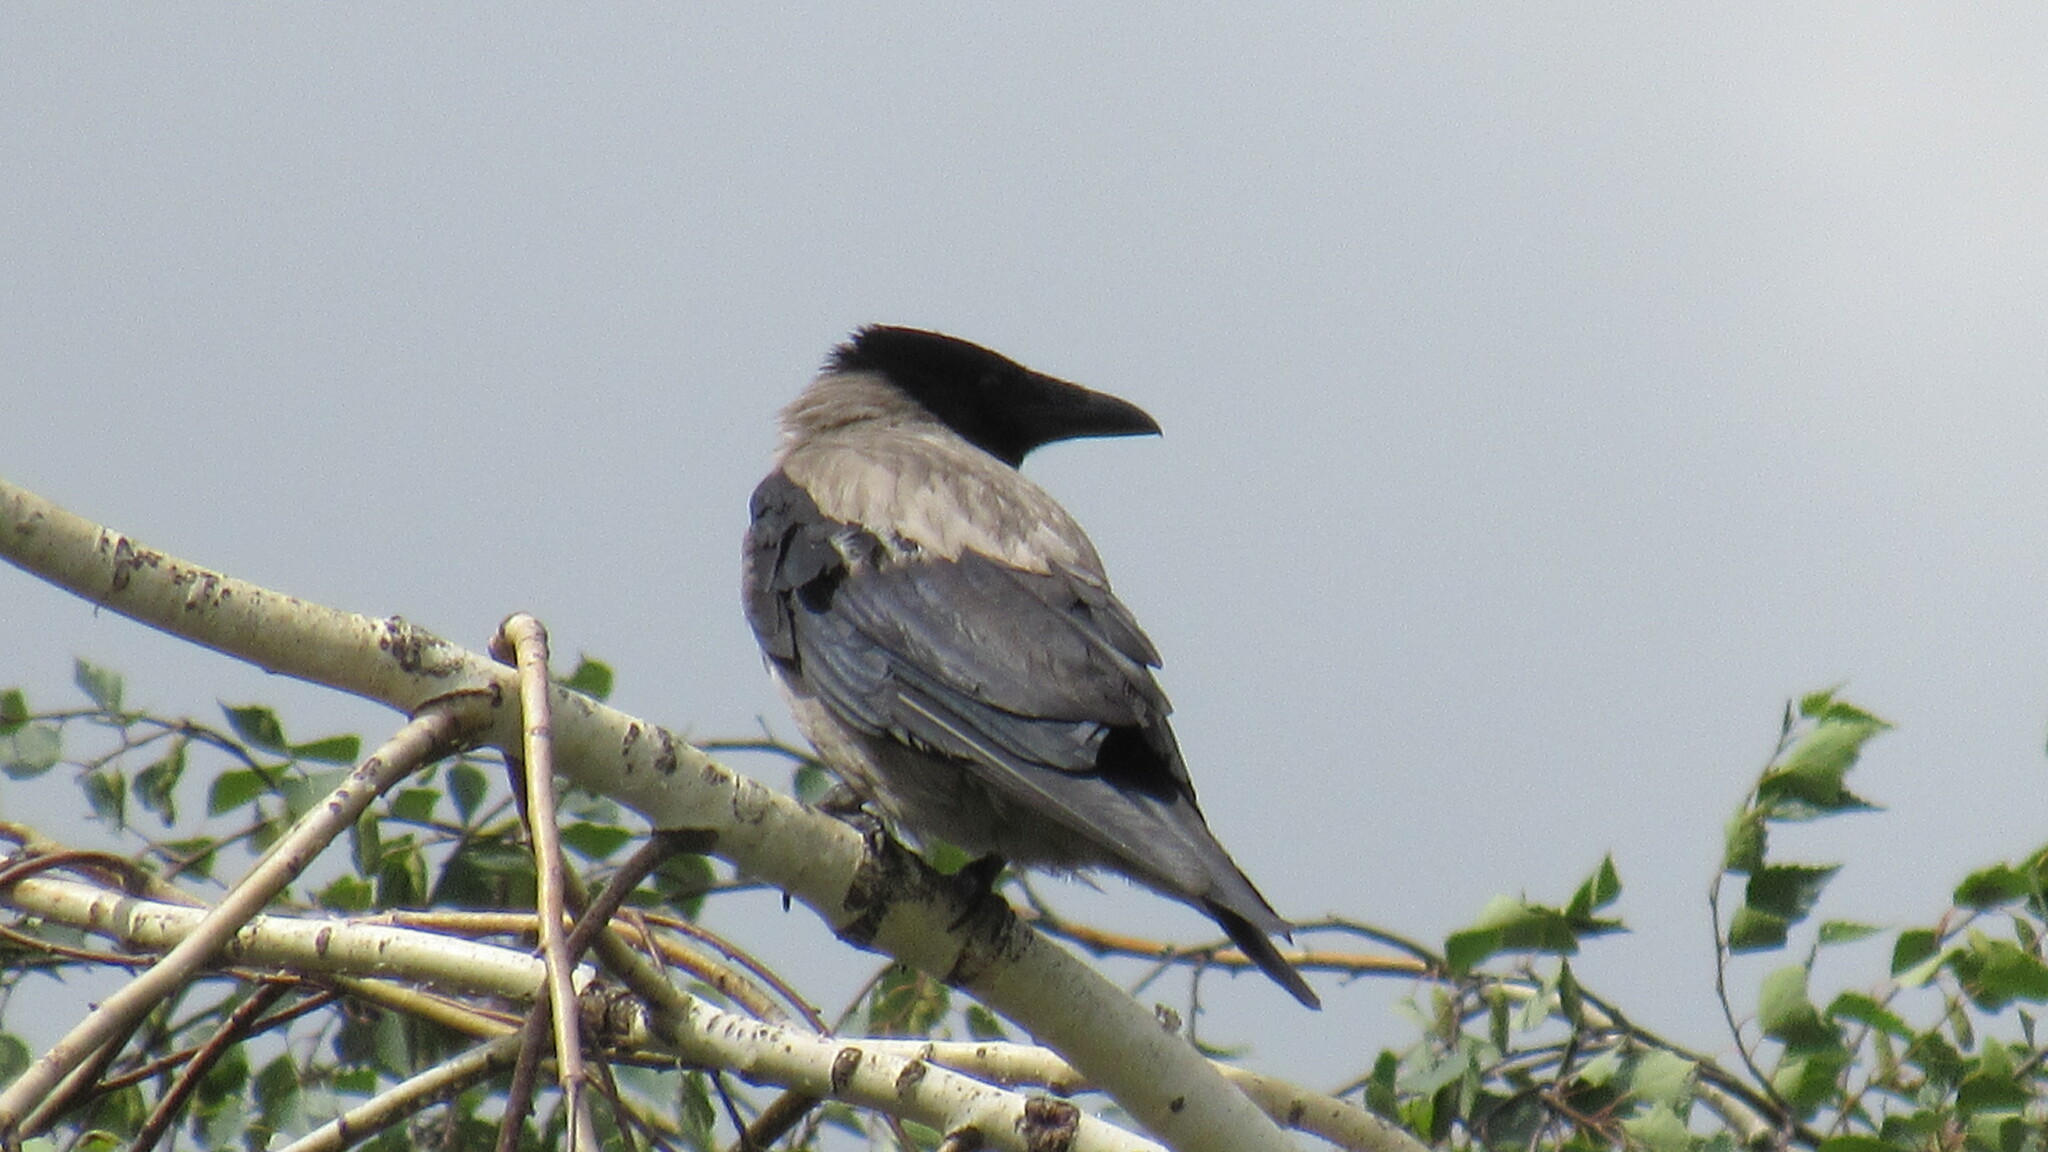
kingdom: Animalia
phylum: Chordata
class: Aves
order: Passeriformes
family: Corvidae
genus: Corvus
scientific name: Corvus cornix
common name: Hooded crow
